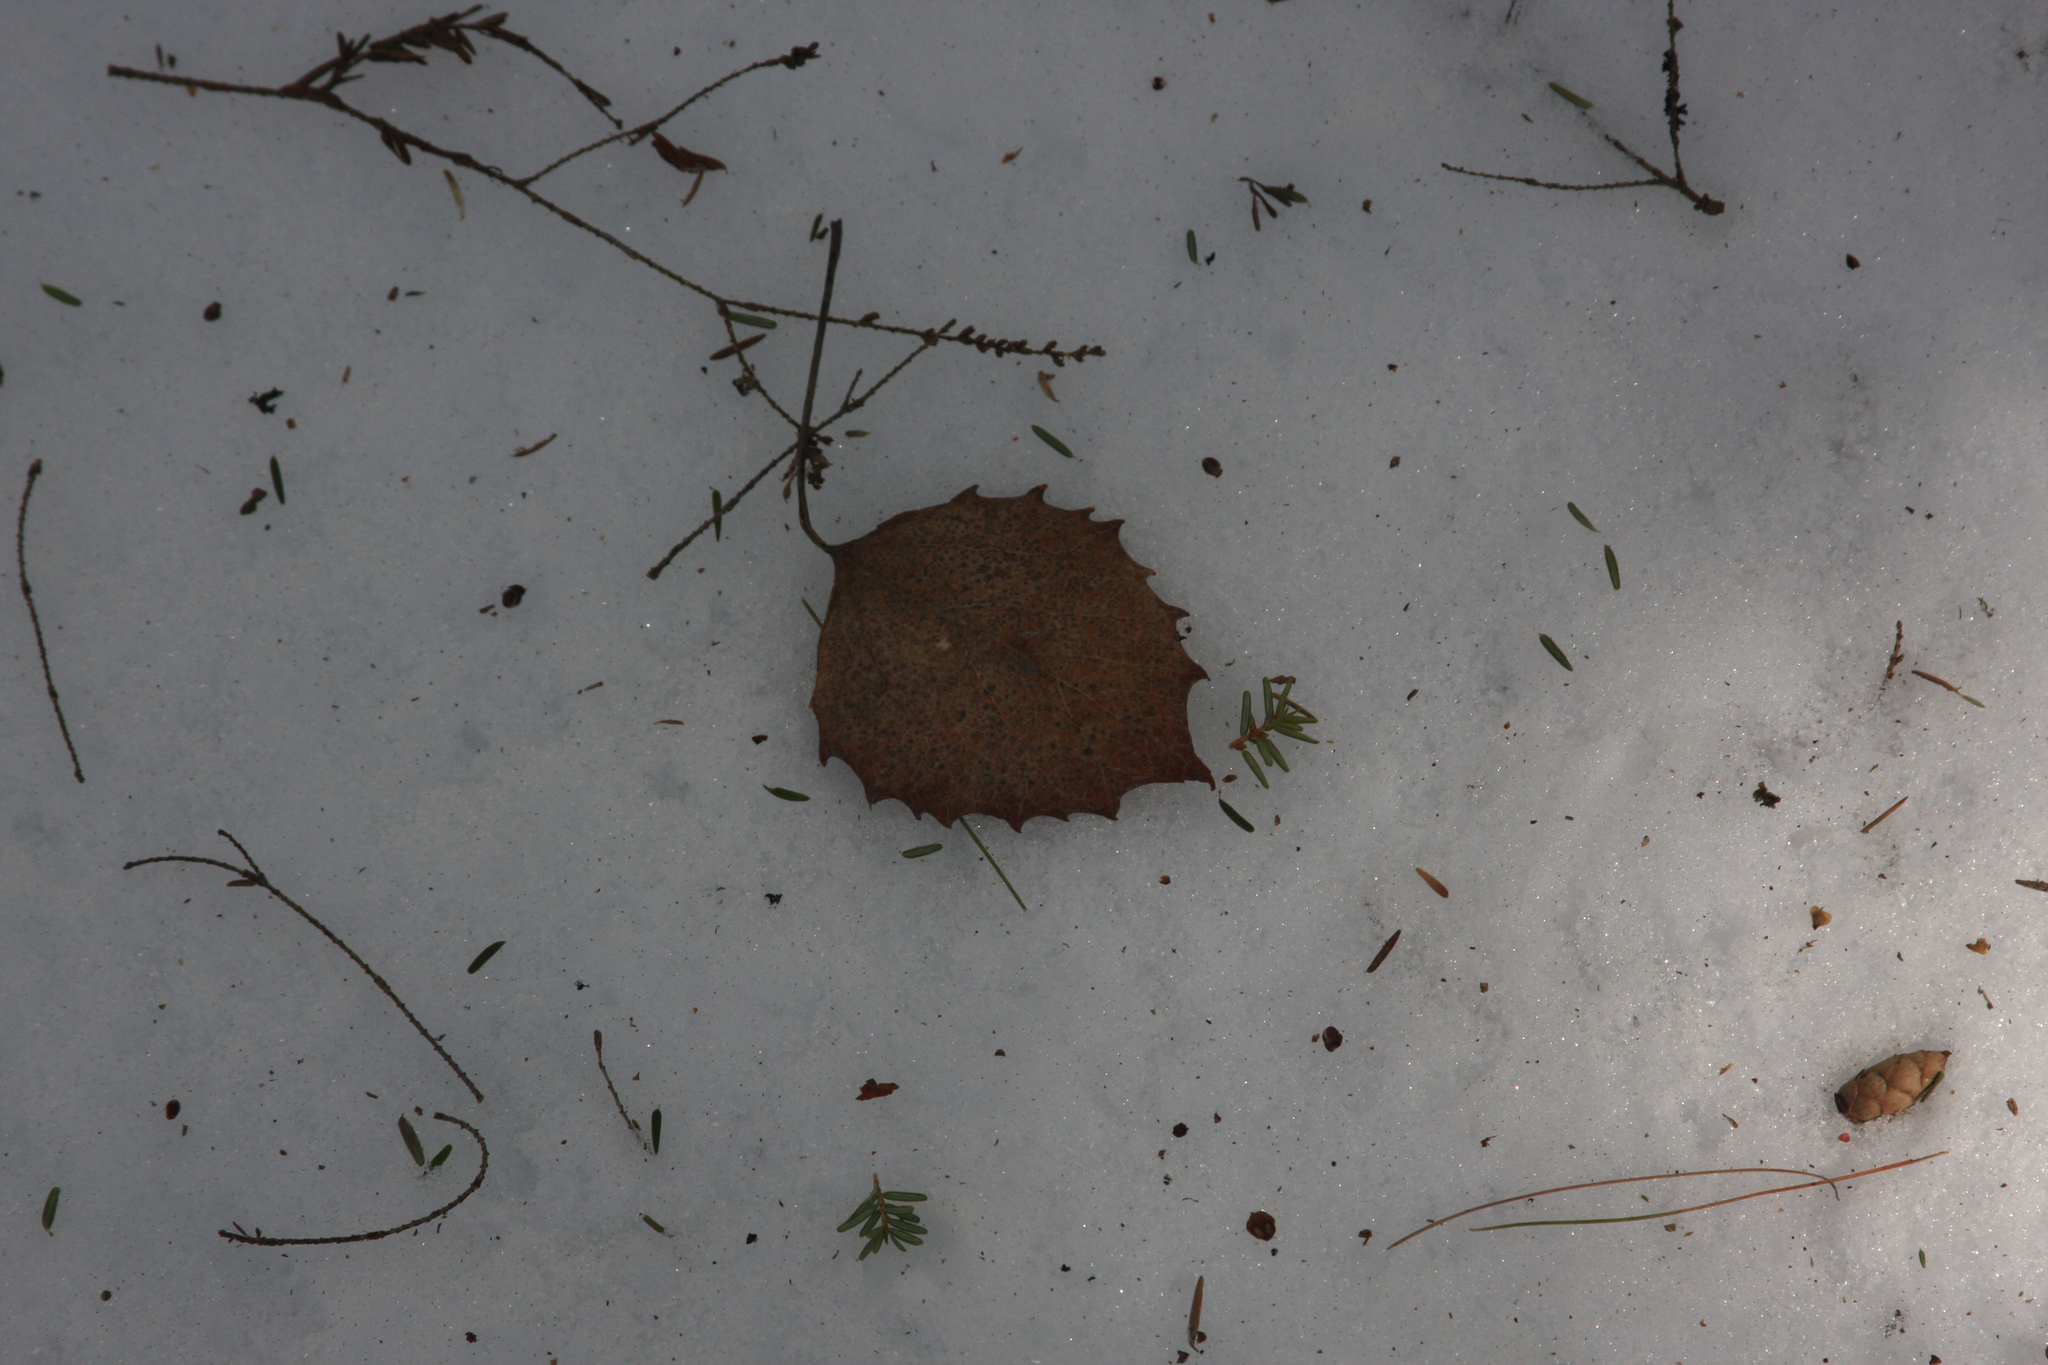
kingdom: Plantae
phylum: Tracheophyta
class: Magnoliopsida
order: Malpighiales
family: Salicaceae
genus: Populus
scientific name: Populus grandidentata
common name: Bigtooth aspen
